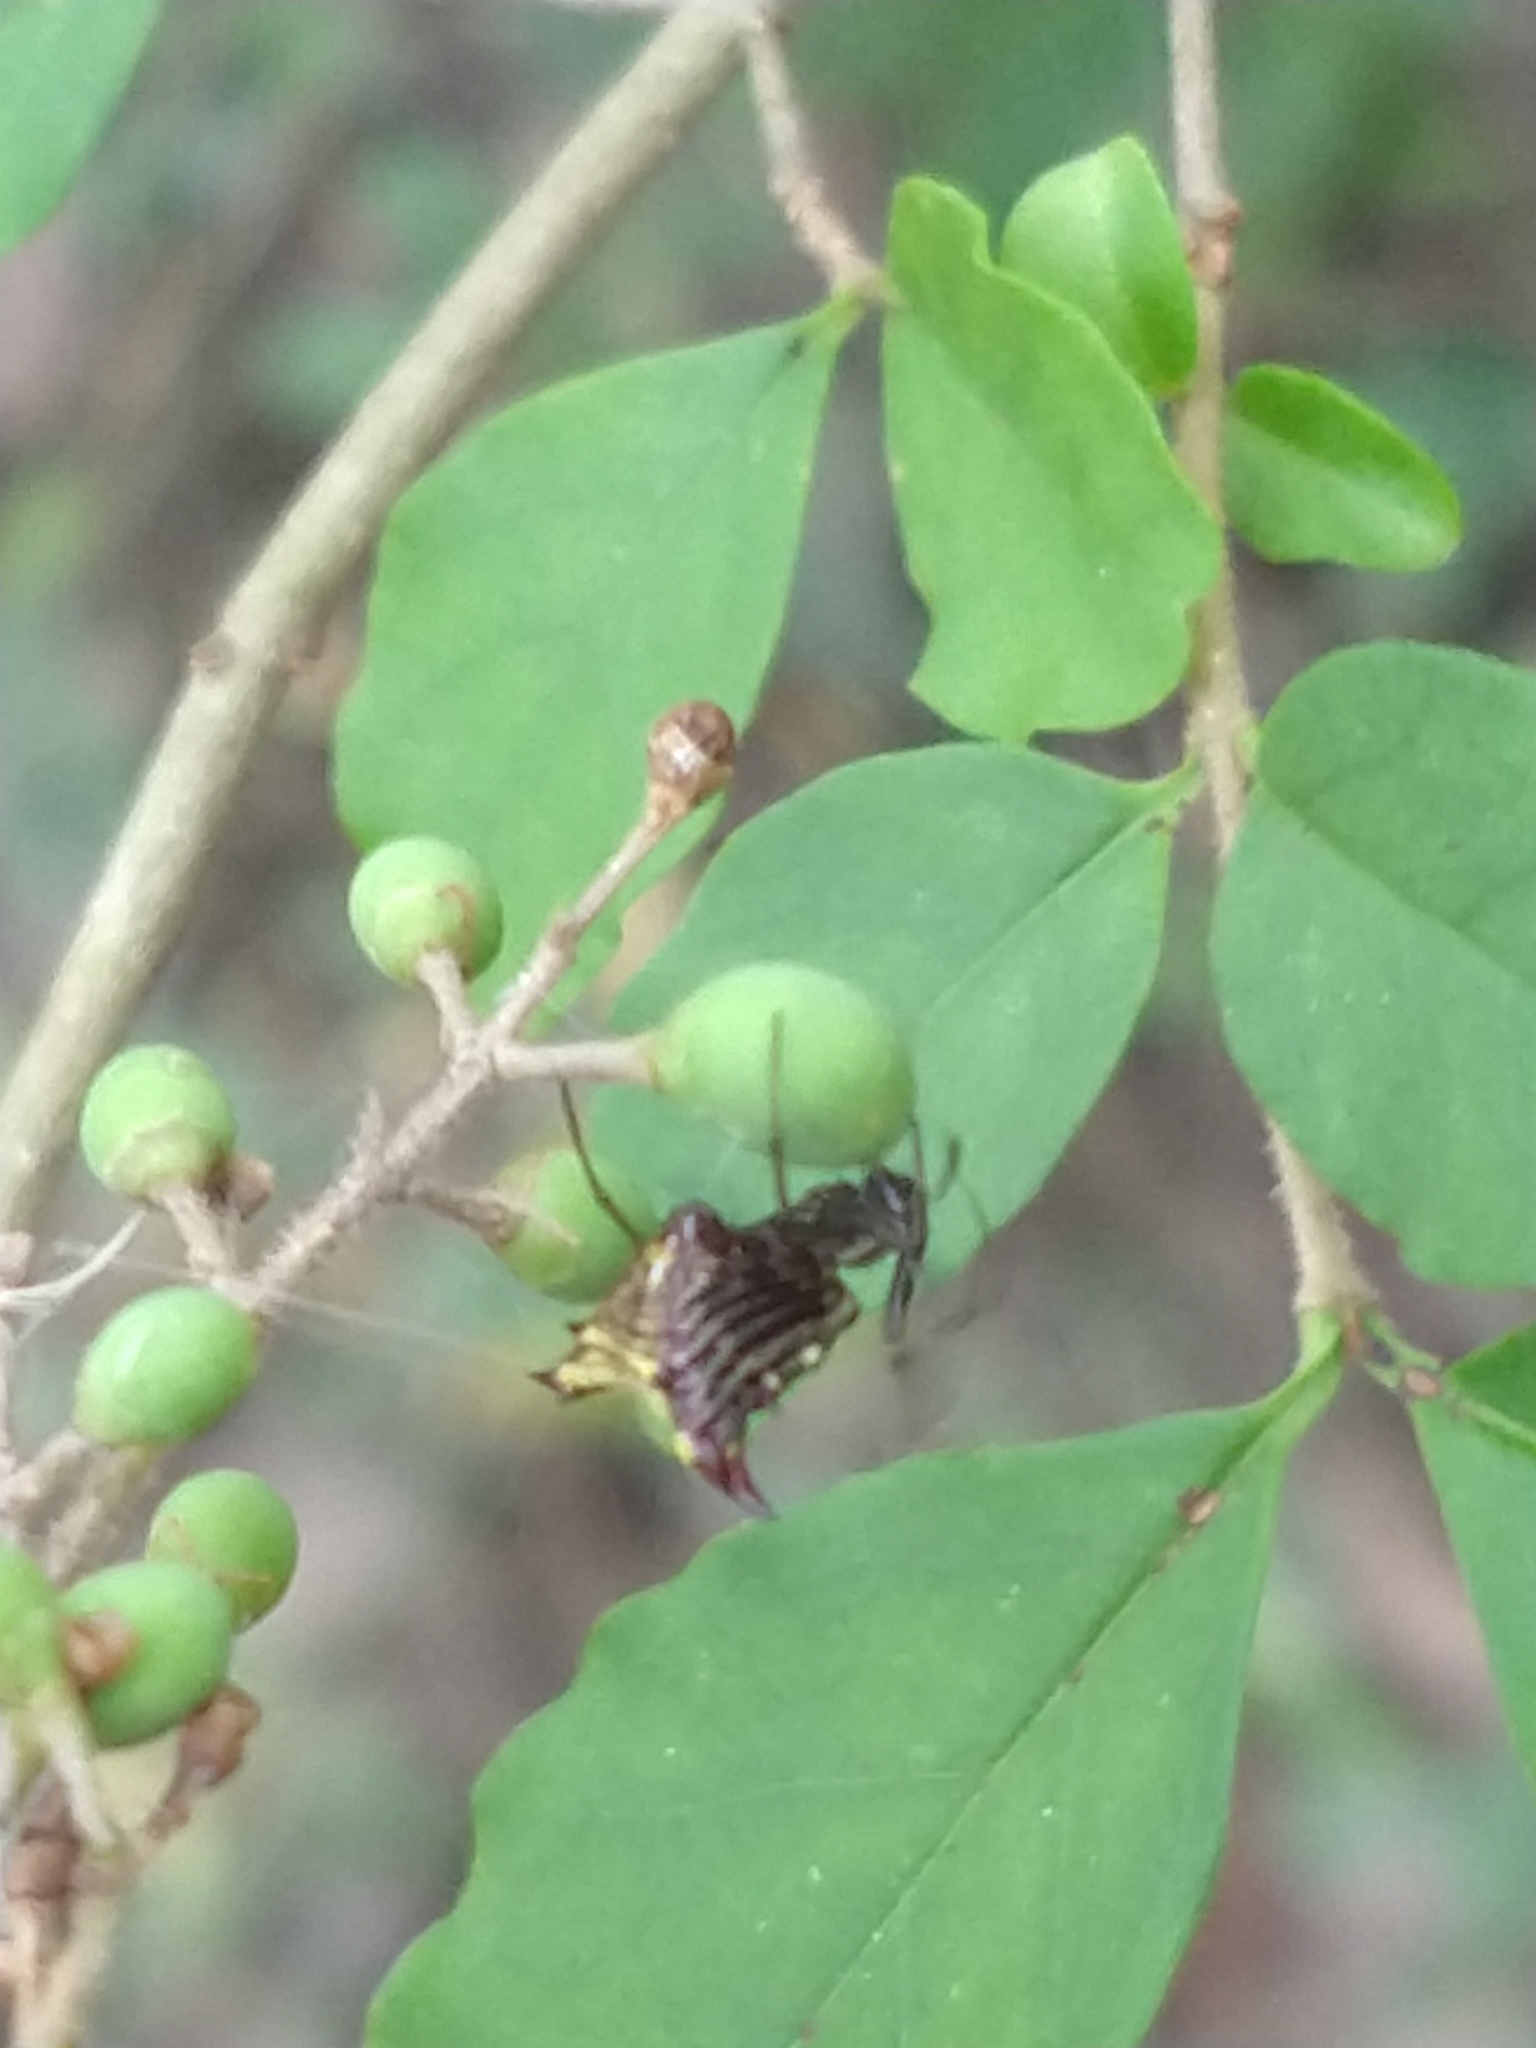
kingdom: Animalia
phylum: Arthropoda
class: Arachnida
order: Araneae
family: Araneidae
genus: Micrathena
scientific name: Micrathena furva
